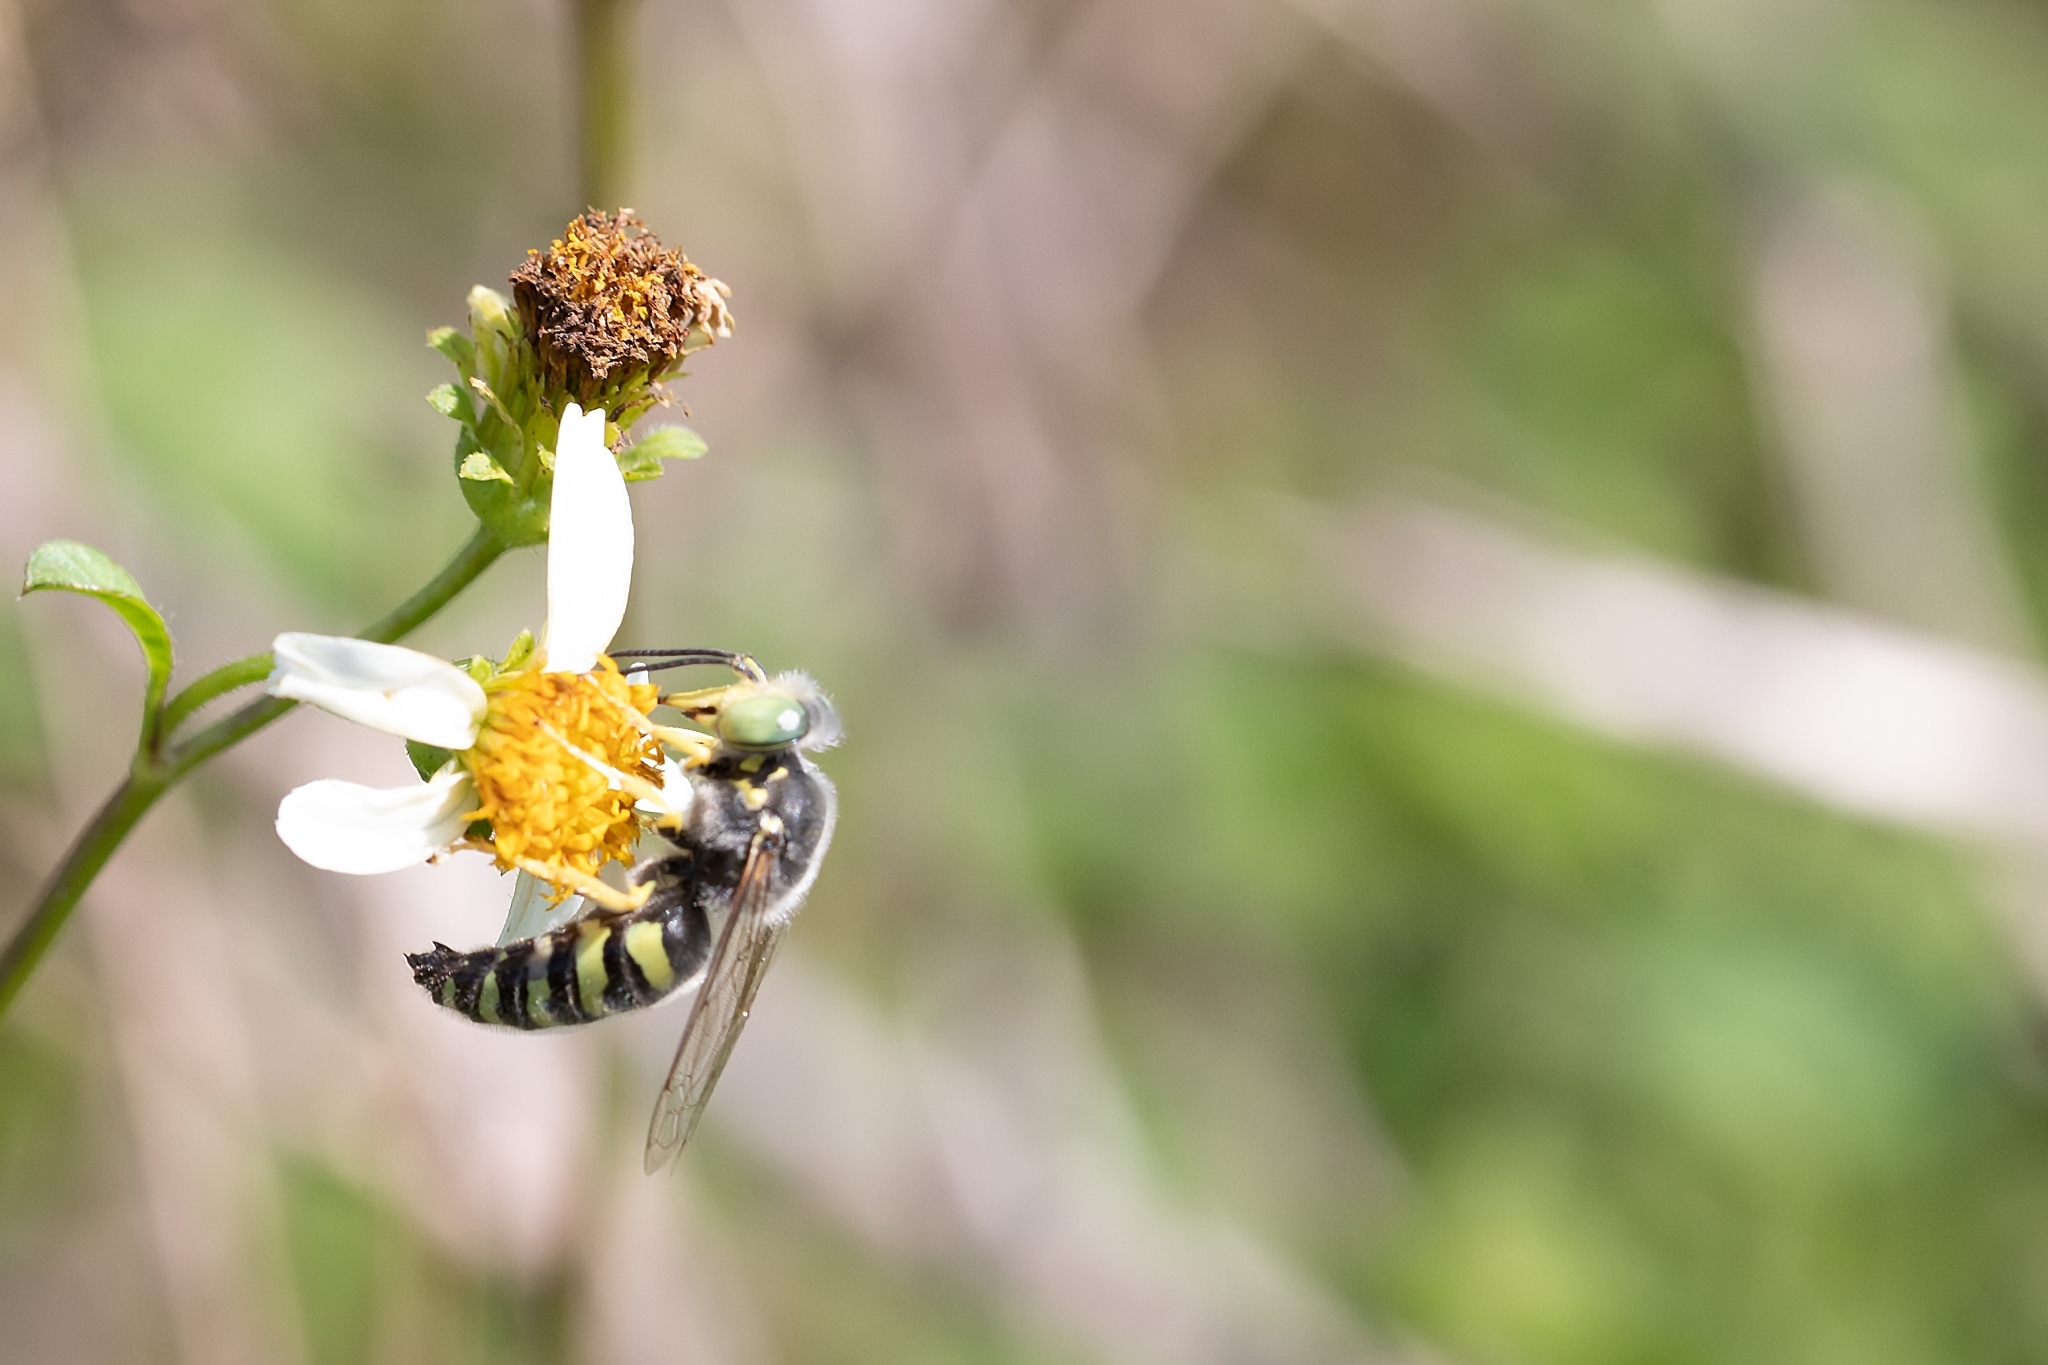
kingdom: Animalia
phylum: Arthropoda
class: Insecta
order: Hymenoptera
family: Crabronidae
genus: Bembix
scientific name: Bembix americana
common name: American sand wasp
